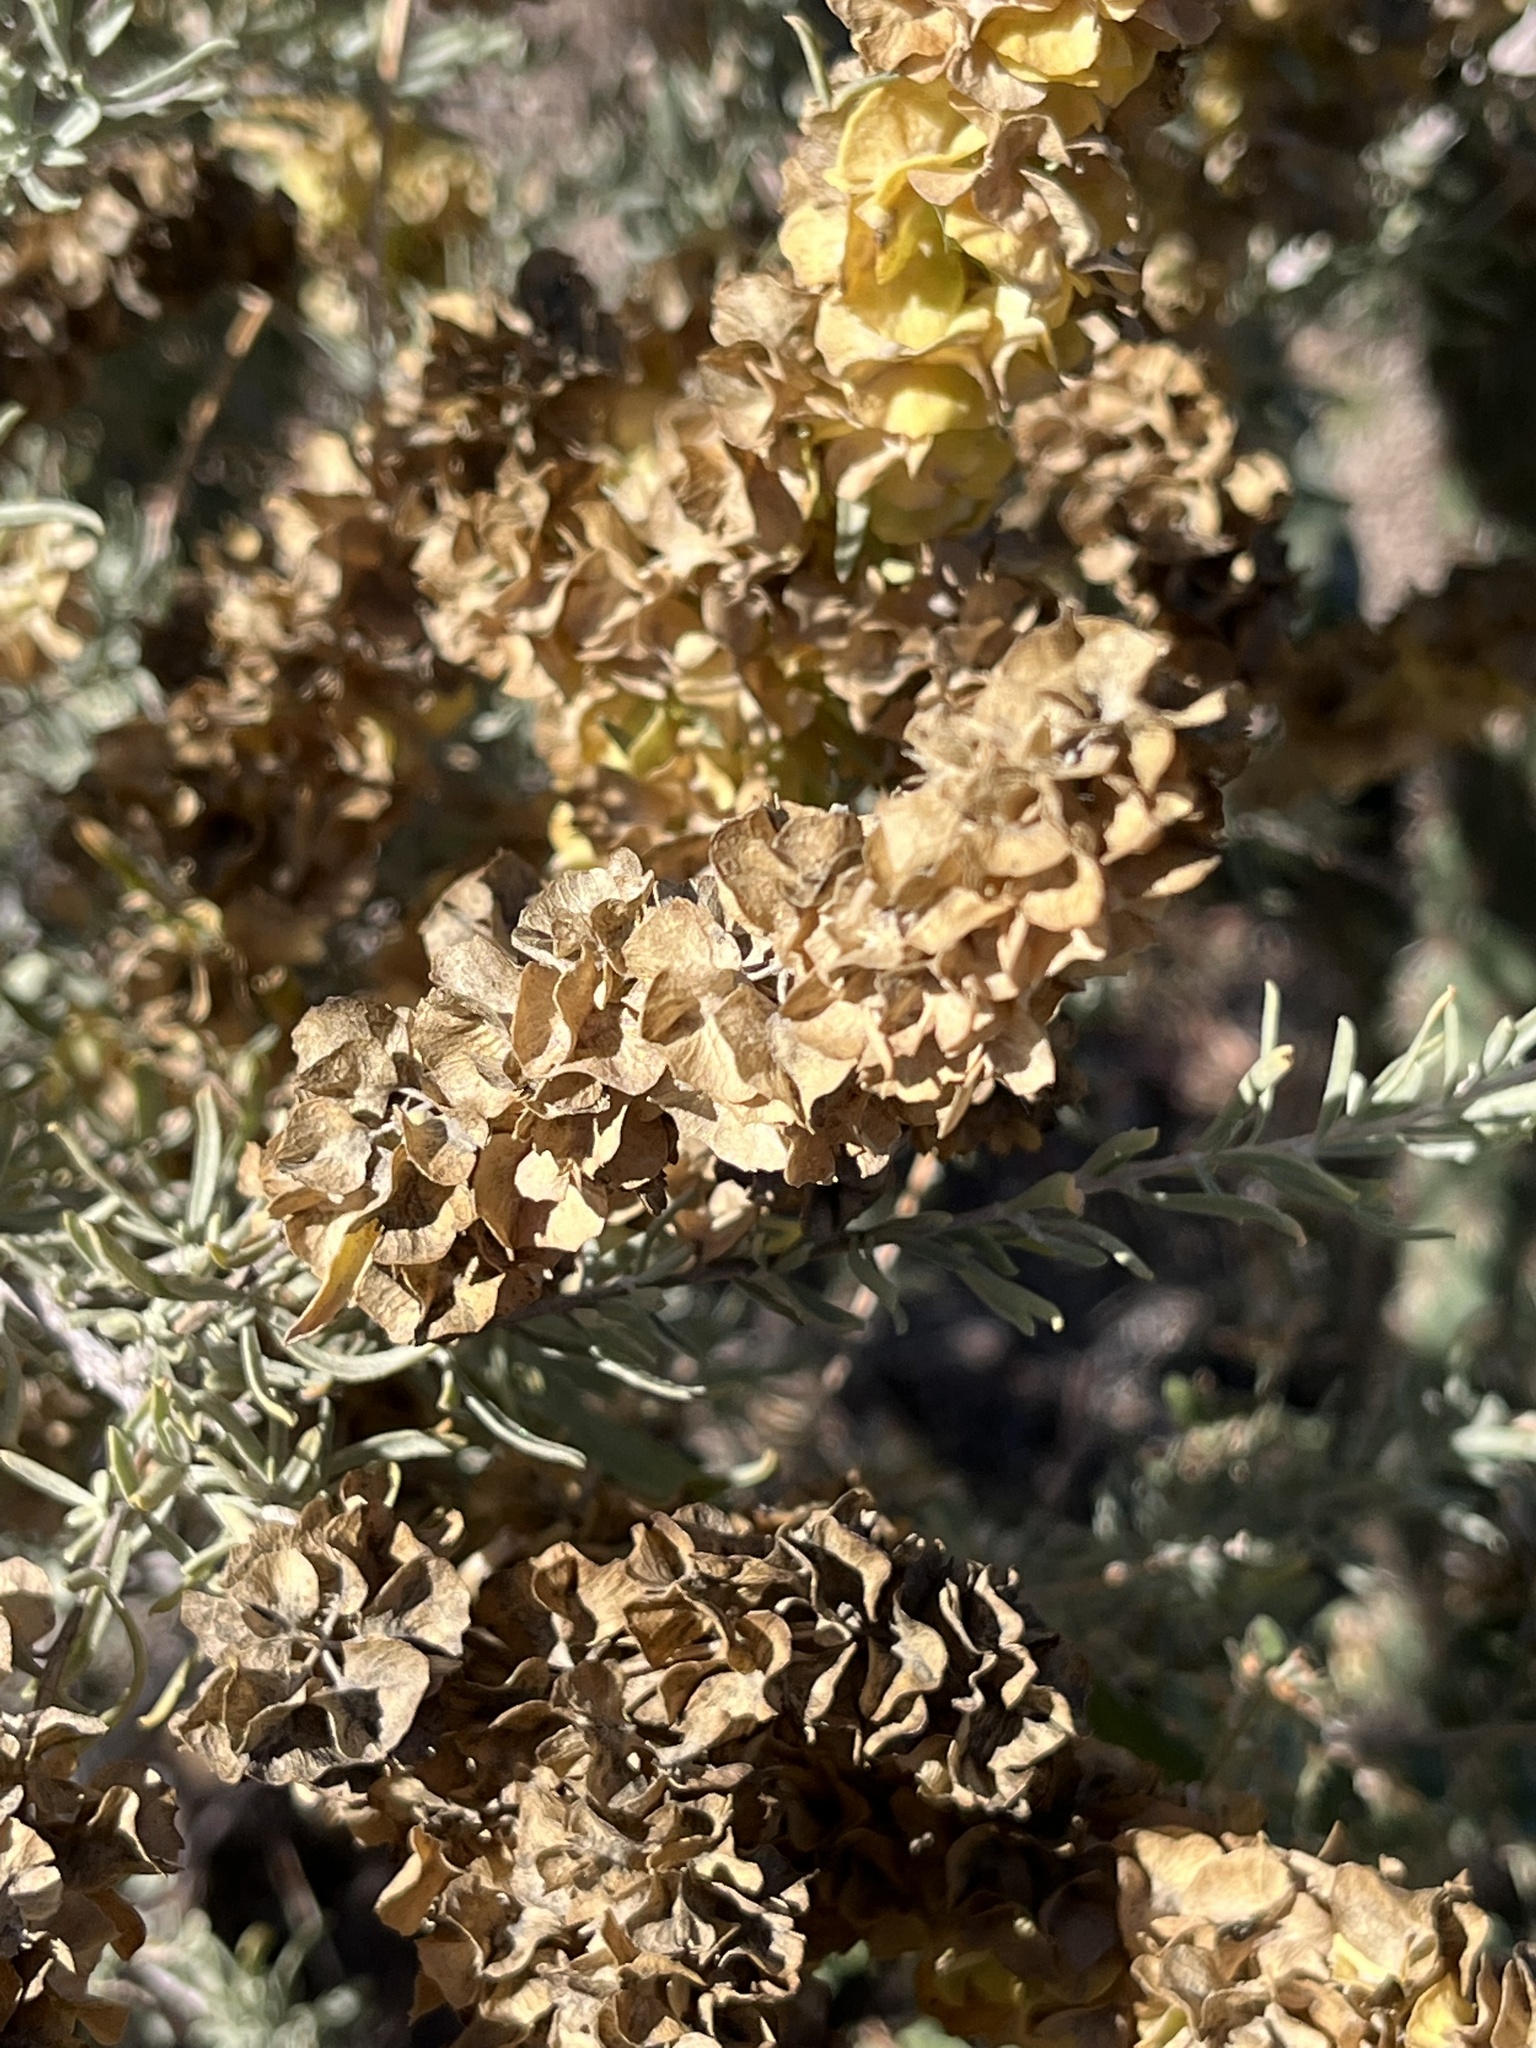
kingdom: Plantae
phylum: Tracheophyta
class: Magnoliopsida
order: Caryophyllales
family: Amaranthaceae
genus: Atriplex
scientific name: Atriplex canescens
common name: Four-wing saltbush
